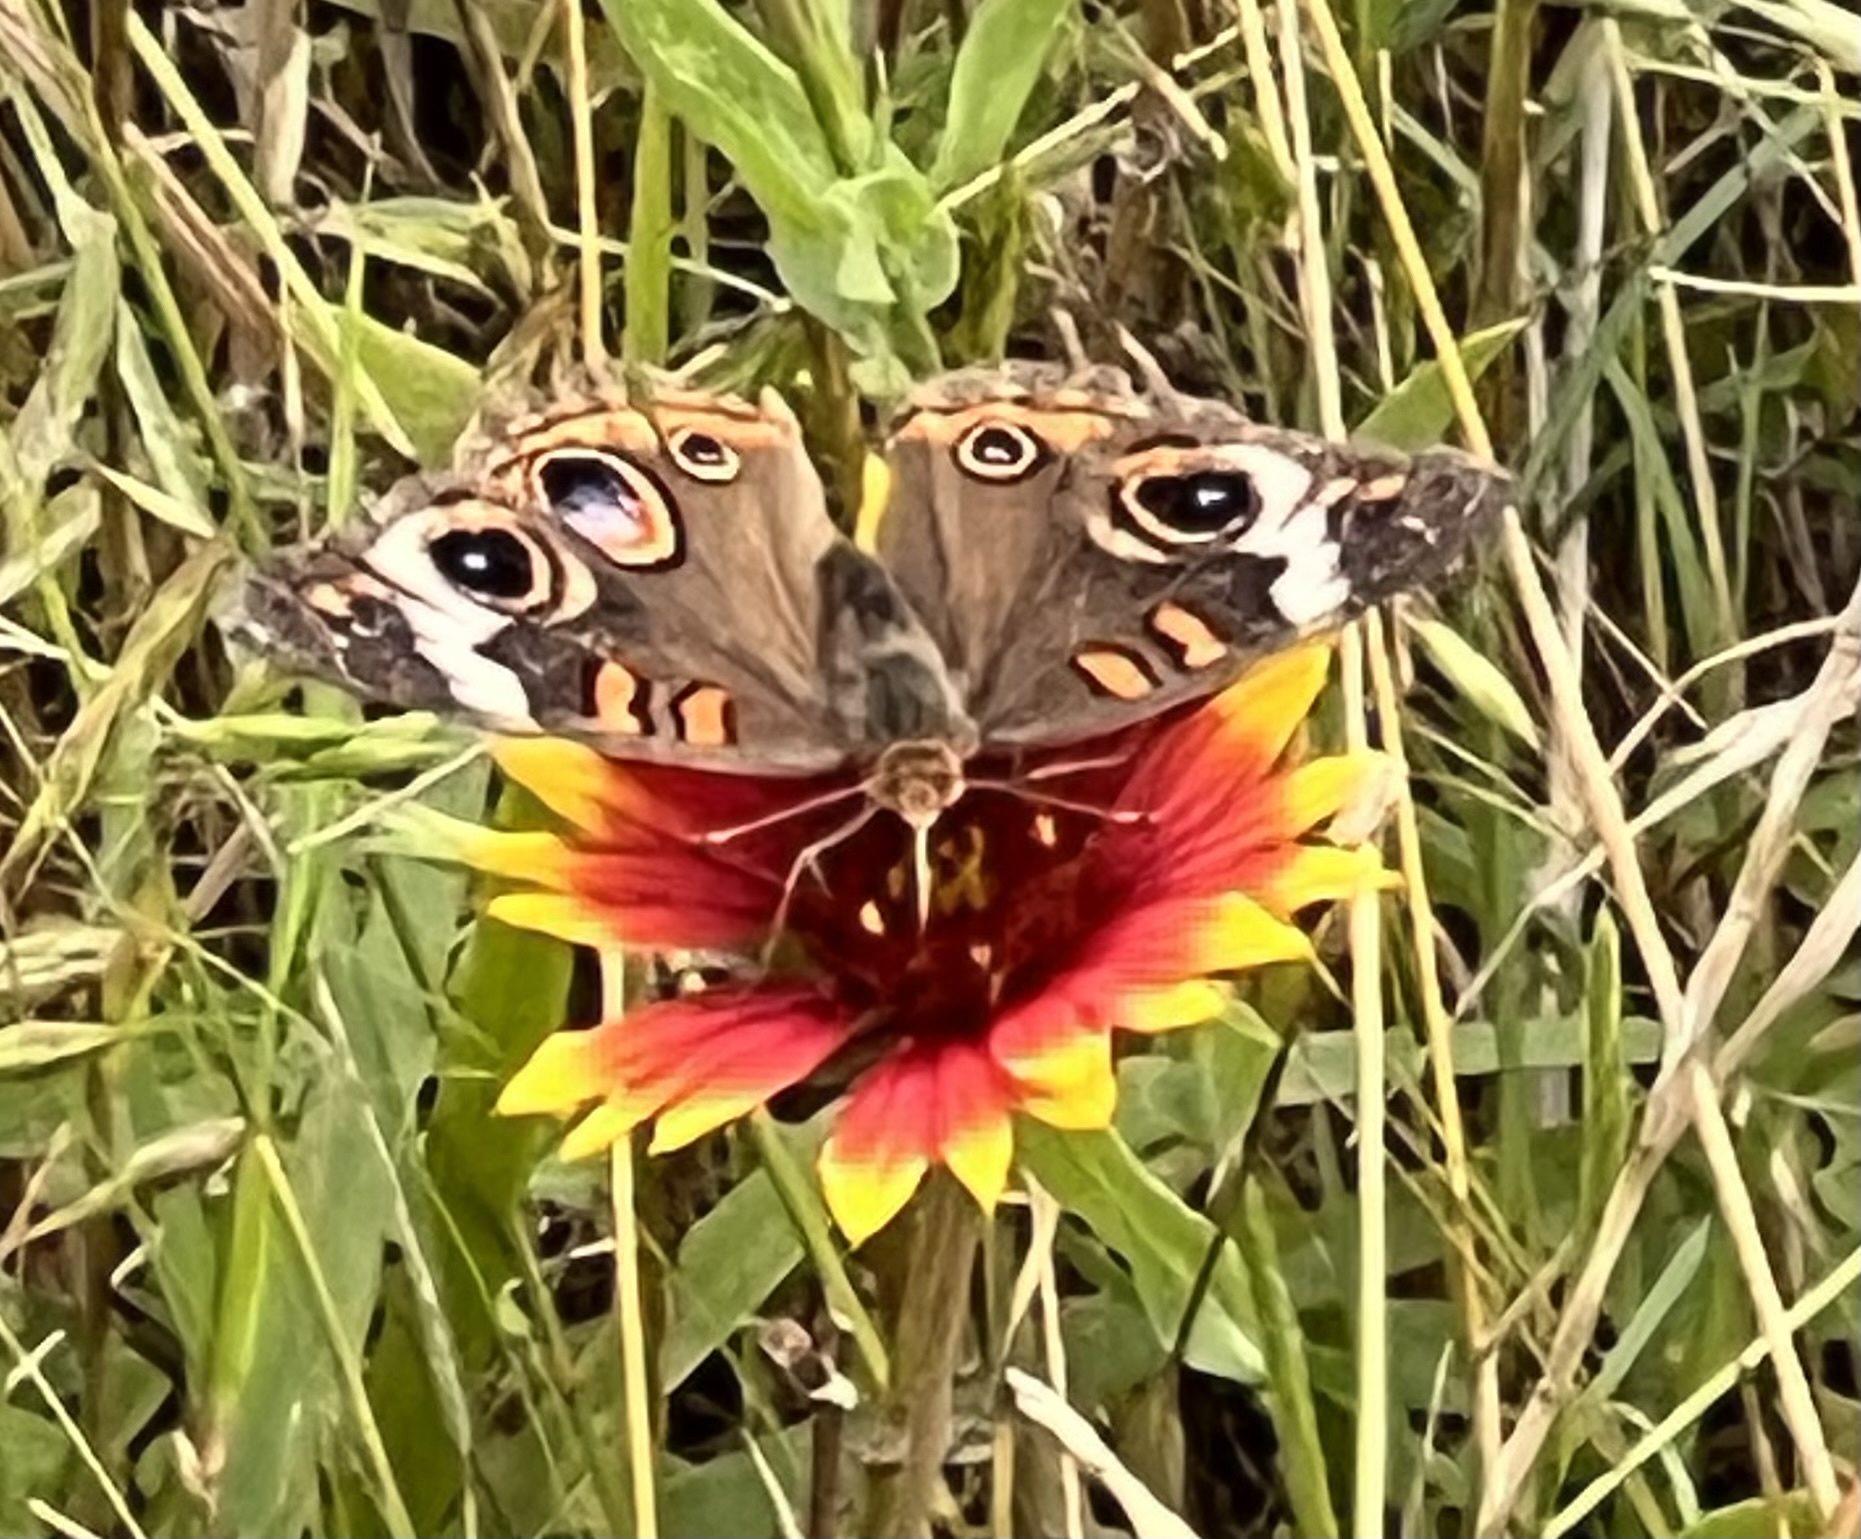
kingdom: Animalia
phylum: Arthropoda
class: Insecta
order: Lepidoptera
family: Nymphalidae
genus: Junonia
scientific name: Junonia coenia
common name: Common buckeye
